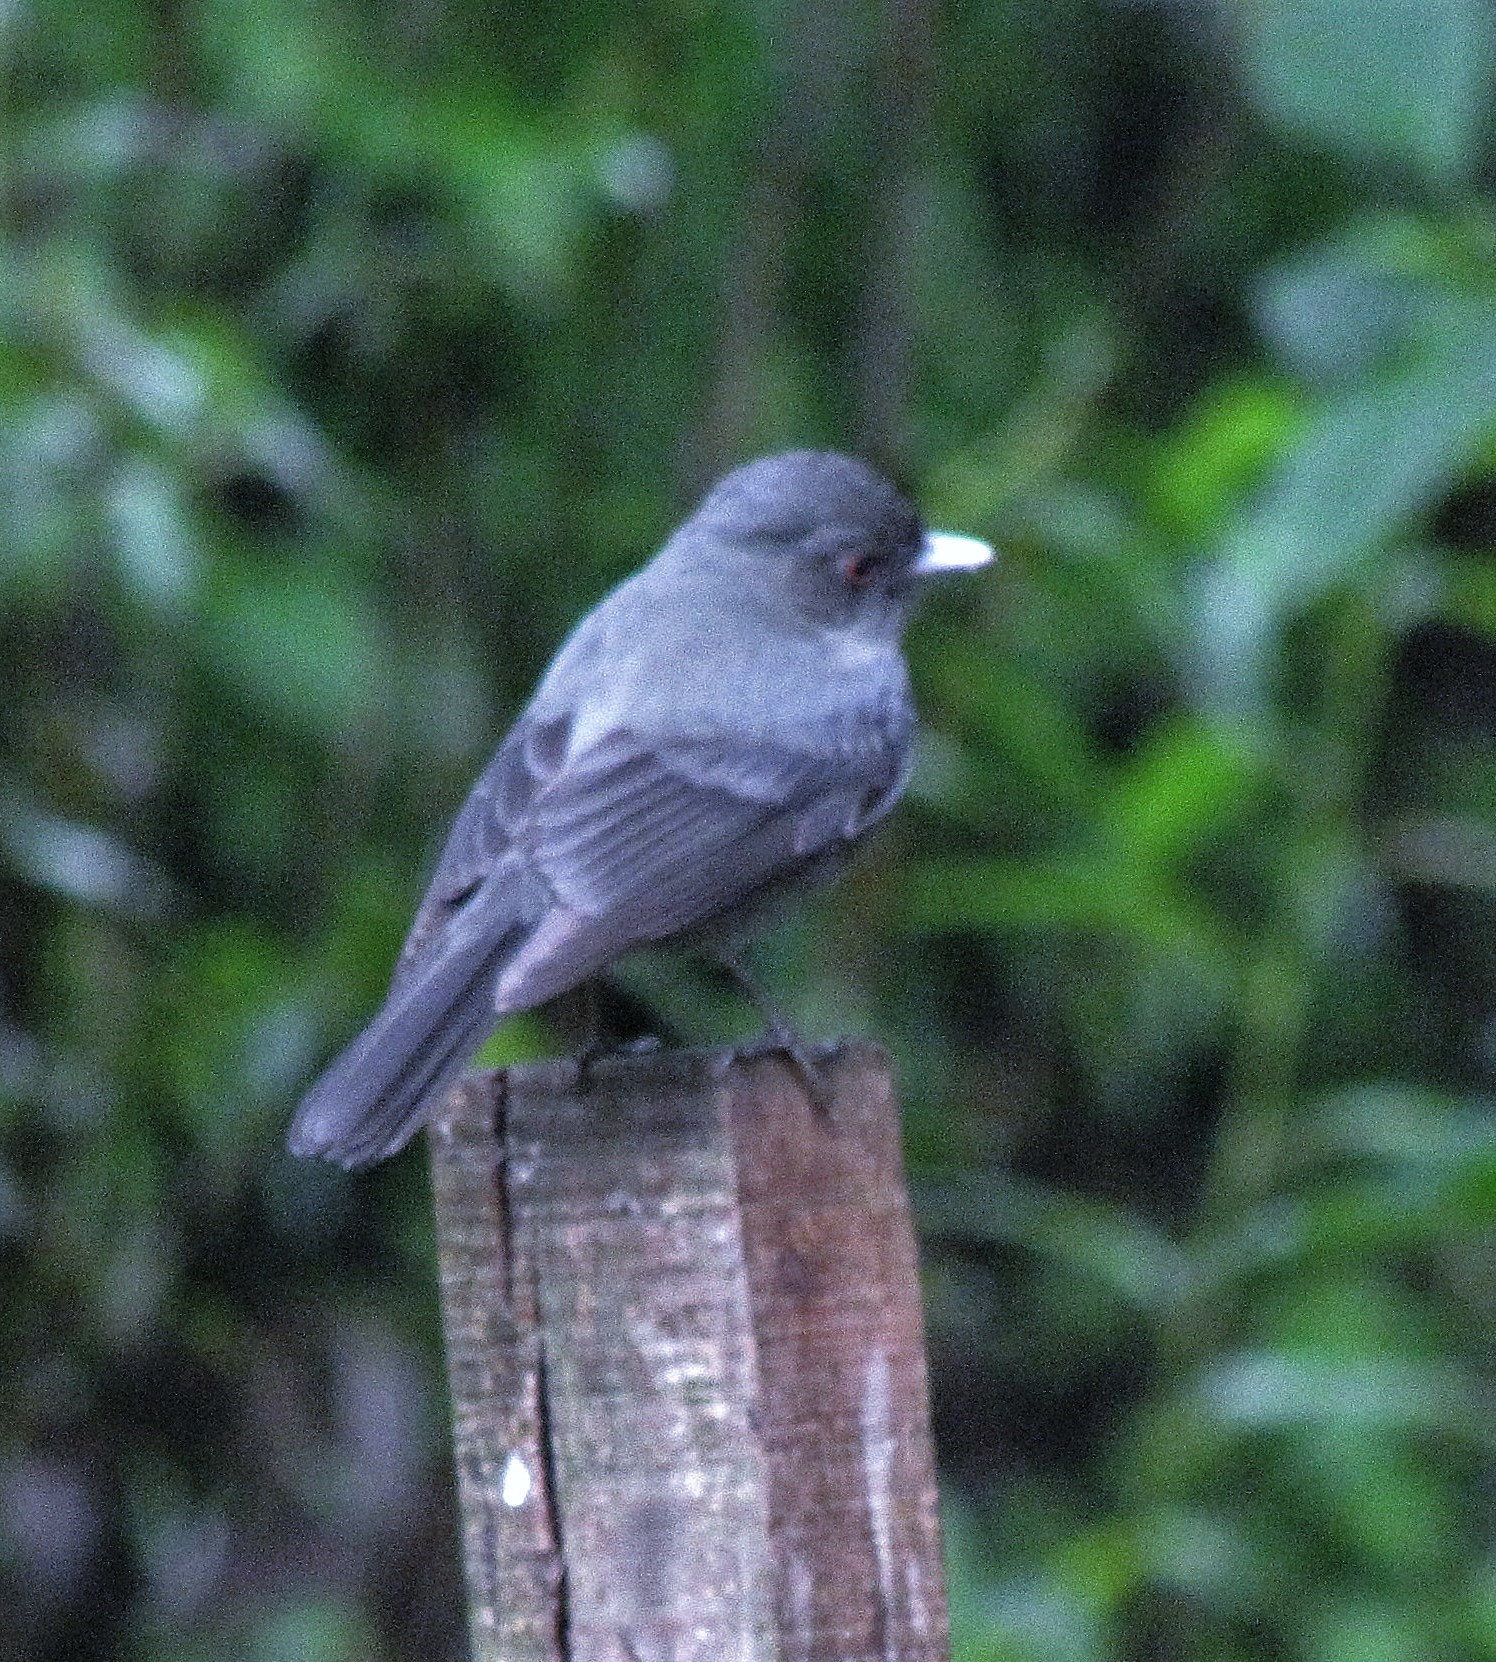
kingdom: Animalia
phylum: Chordata
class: Aves
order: Passeriformes
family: Tyrannidae
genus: Knipolegus
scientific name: Knipolegus cabanisi
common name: Plumbeous tyrant
